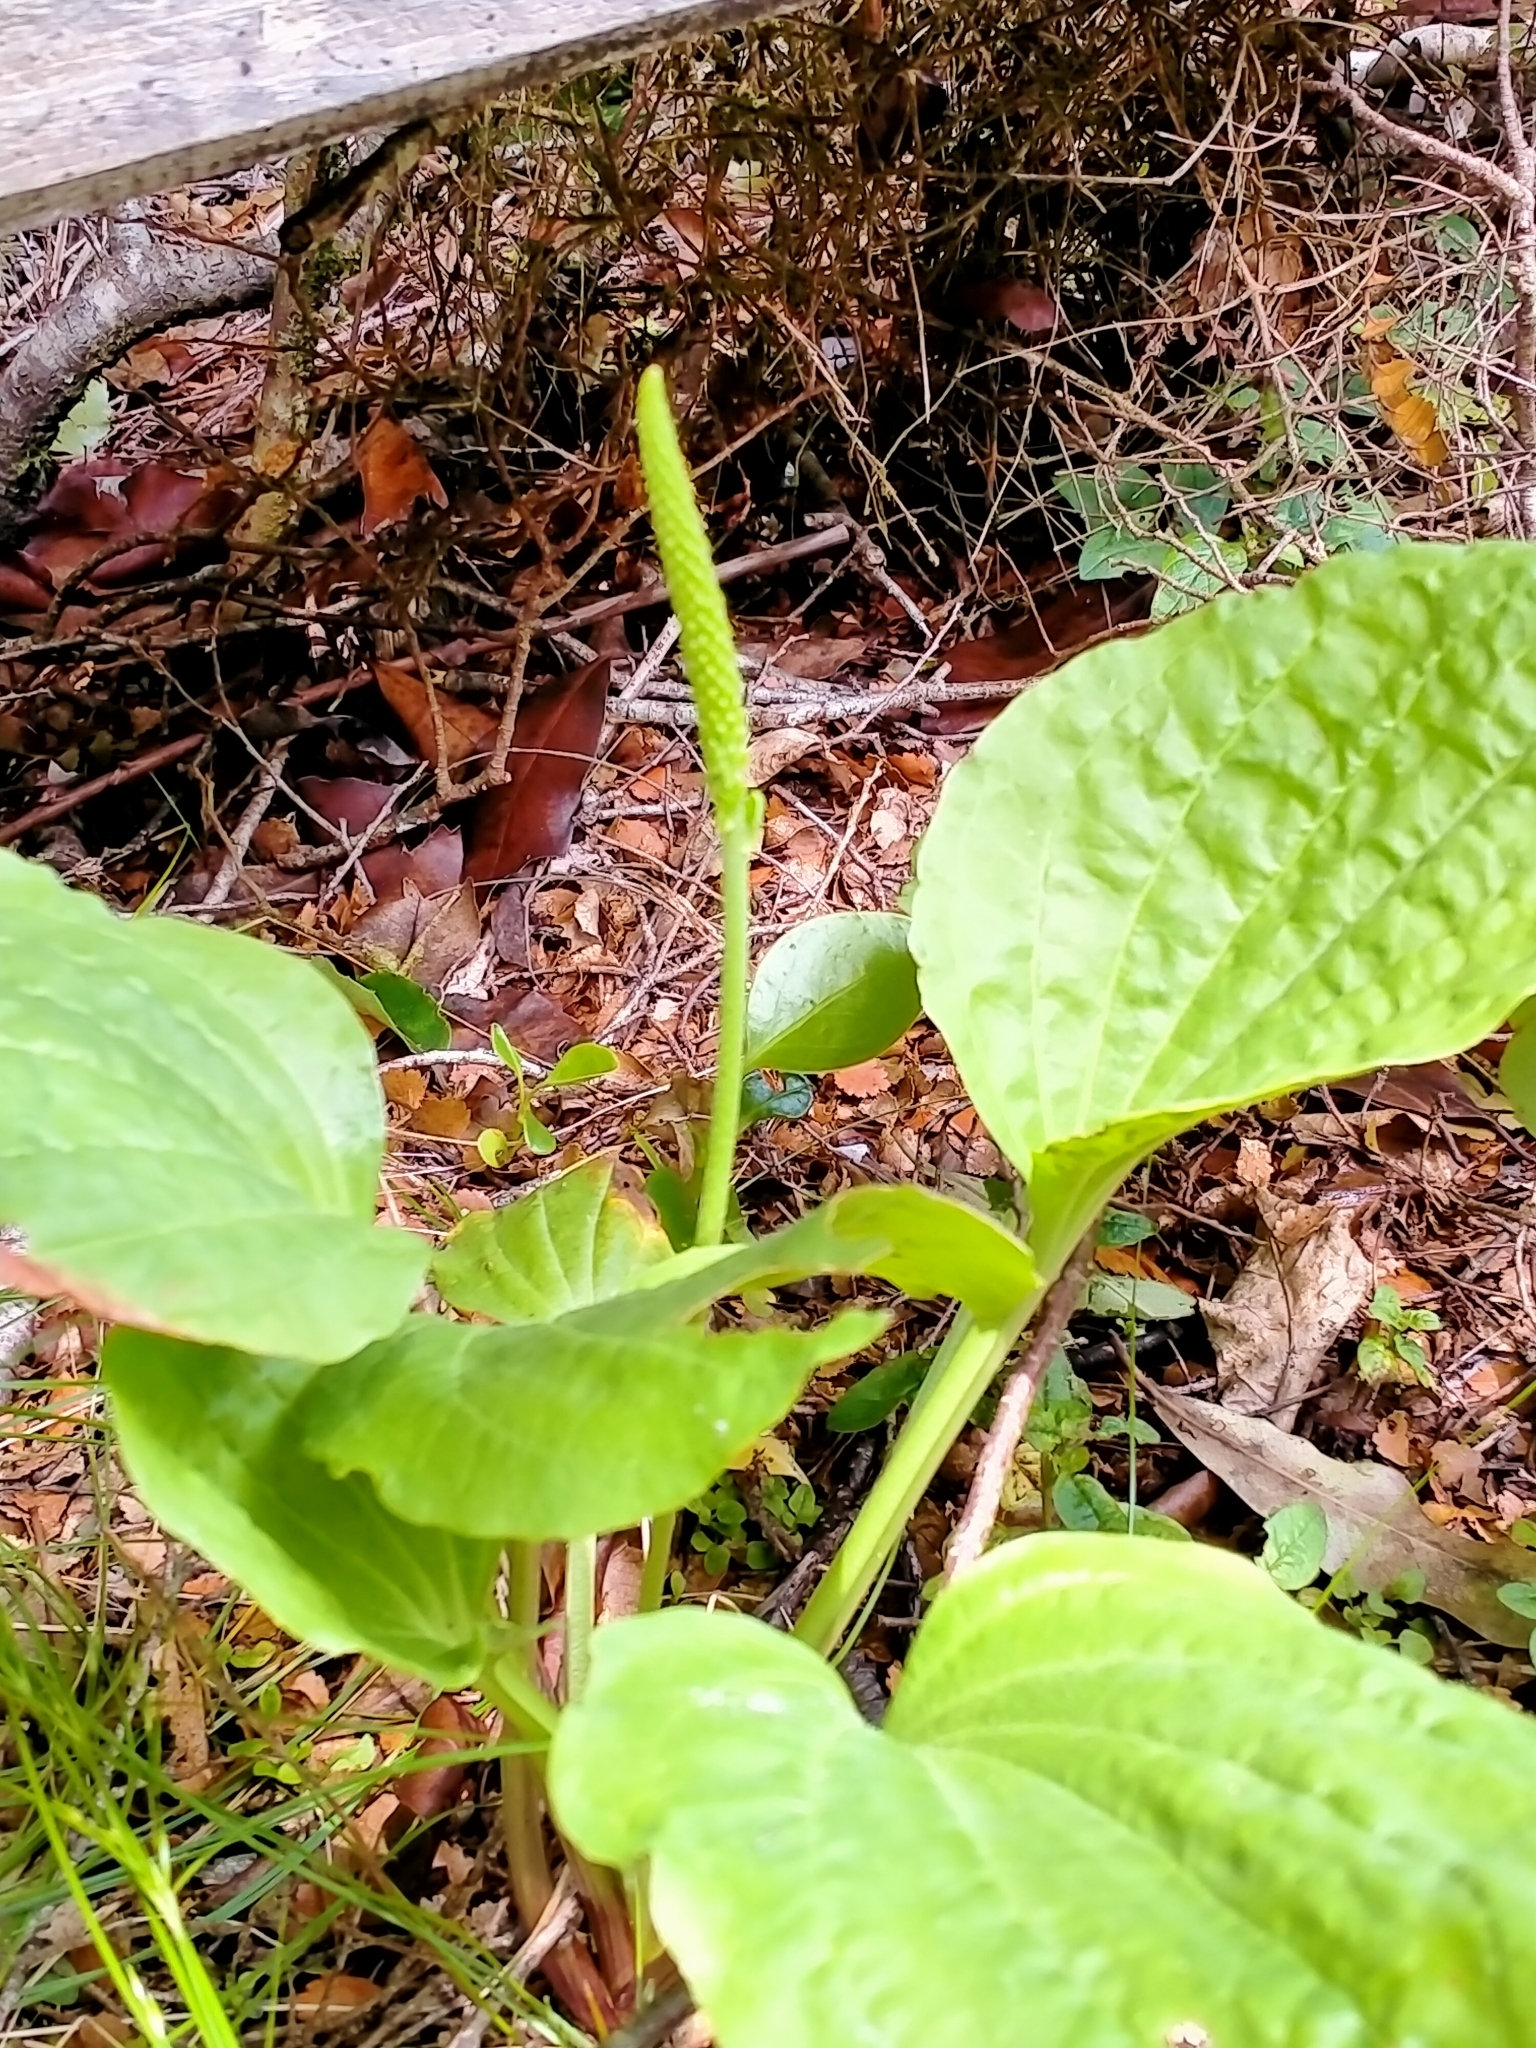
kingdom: Plantae
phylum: Tracheophyta
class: Magnoliopsida
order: Lamiales
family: Plantaginaceae
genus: Plantago
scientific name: Plantago major
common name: Common plantain
